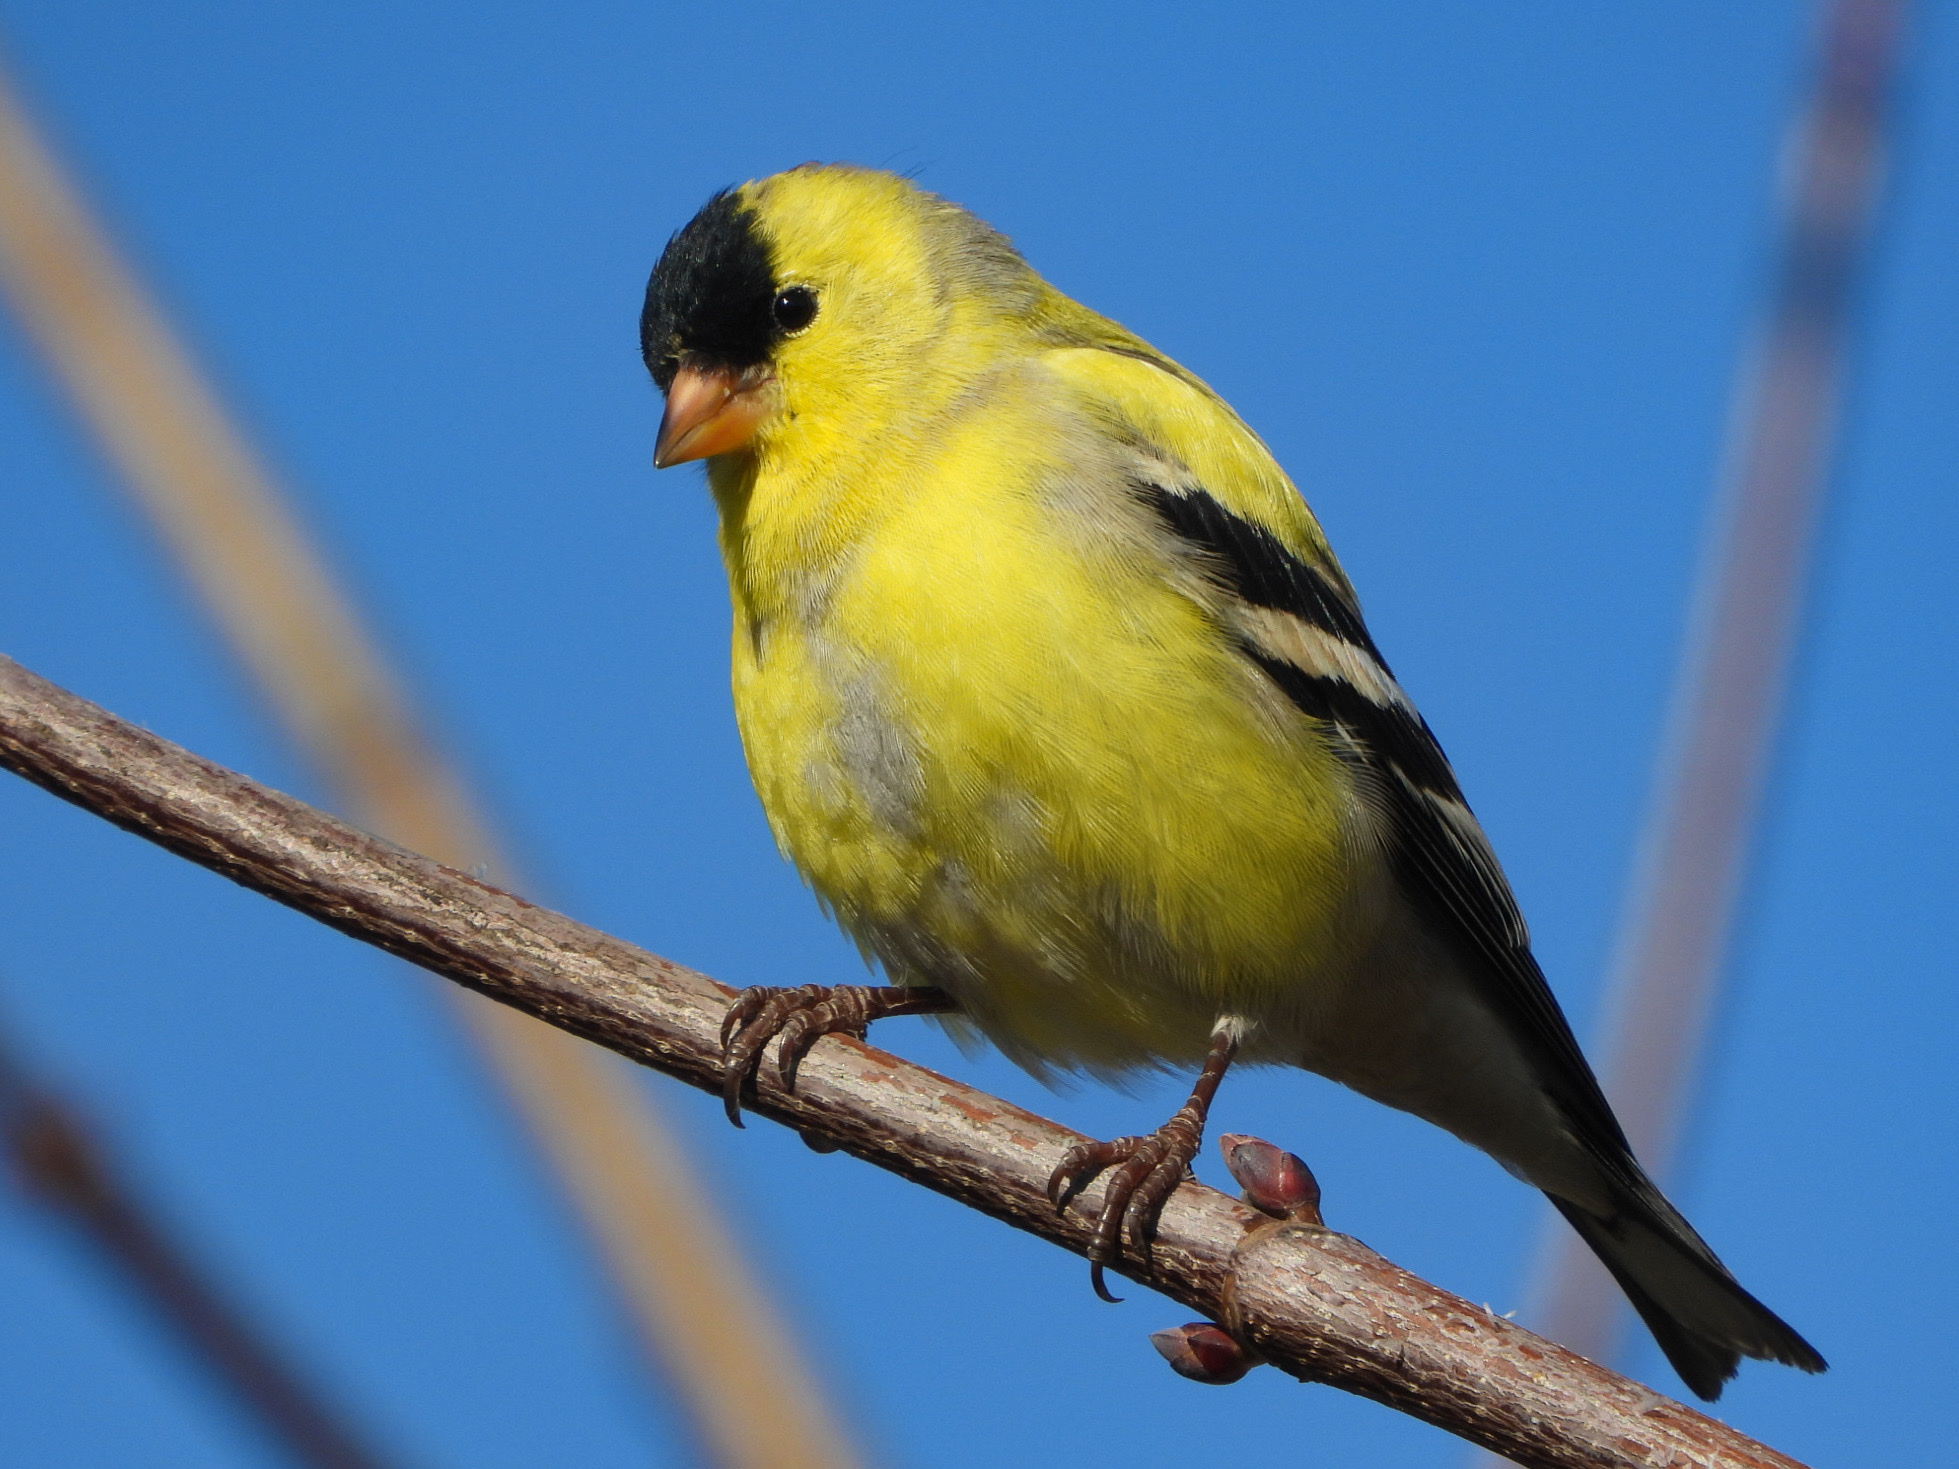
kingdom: Animalia
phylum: Chordata
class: Aves
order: Passeriformes
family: Fringillidae
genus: Spinus
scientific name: Spinus tristis
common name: American goldfinch
